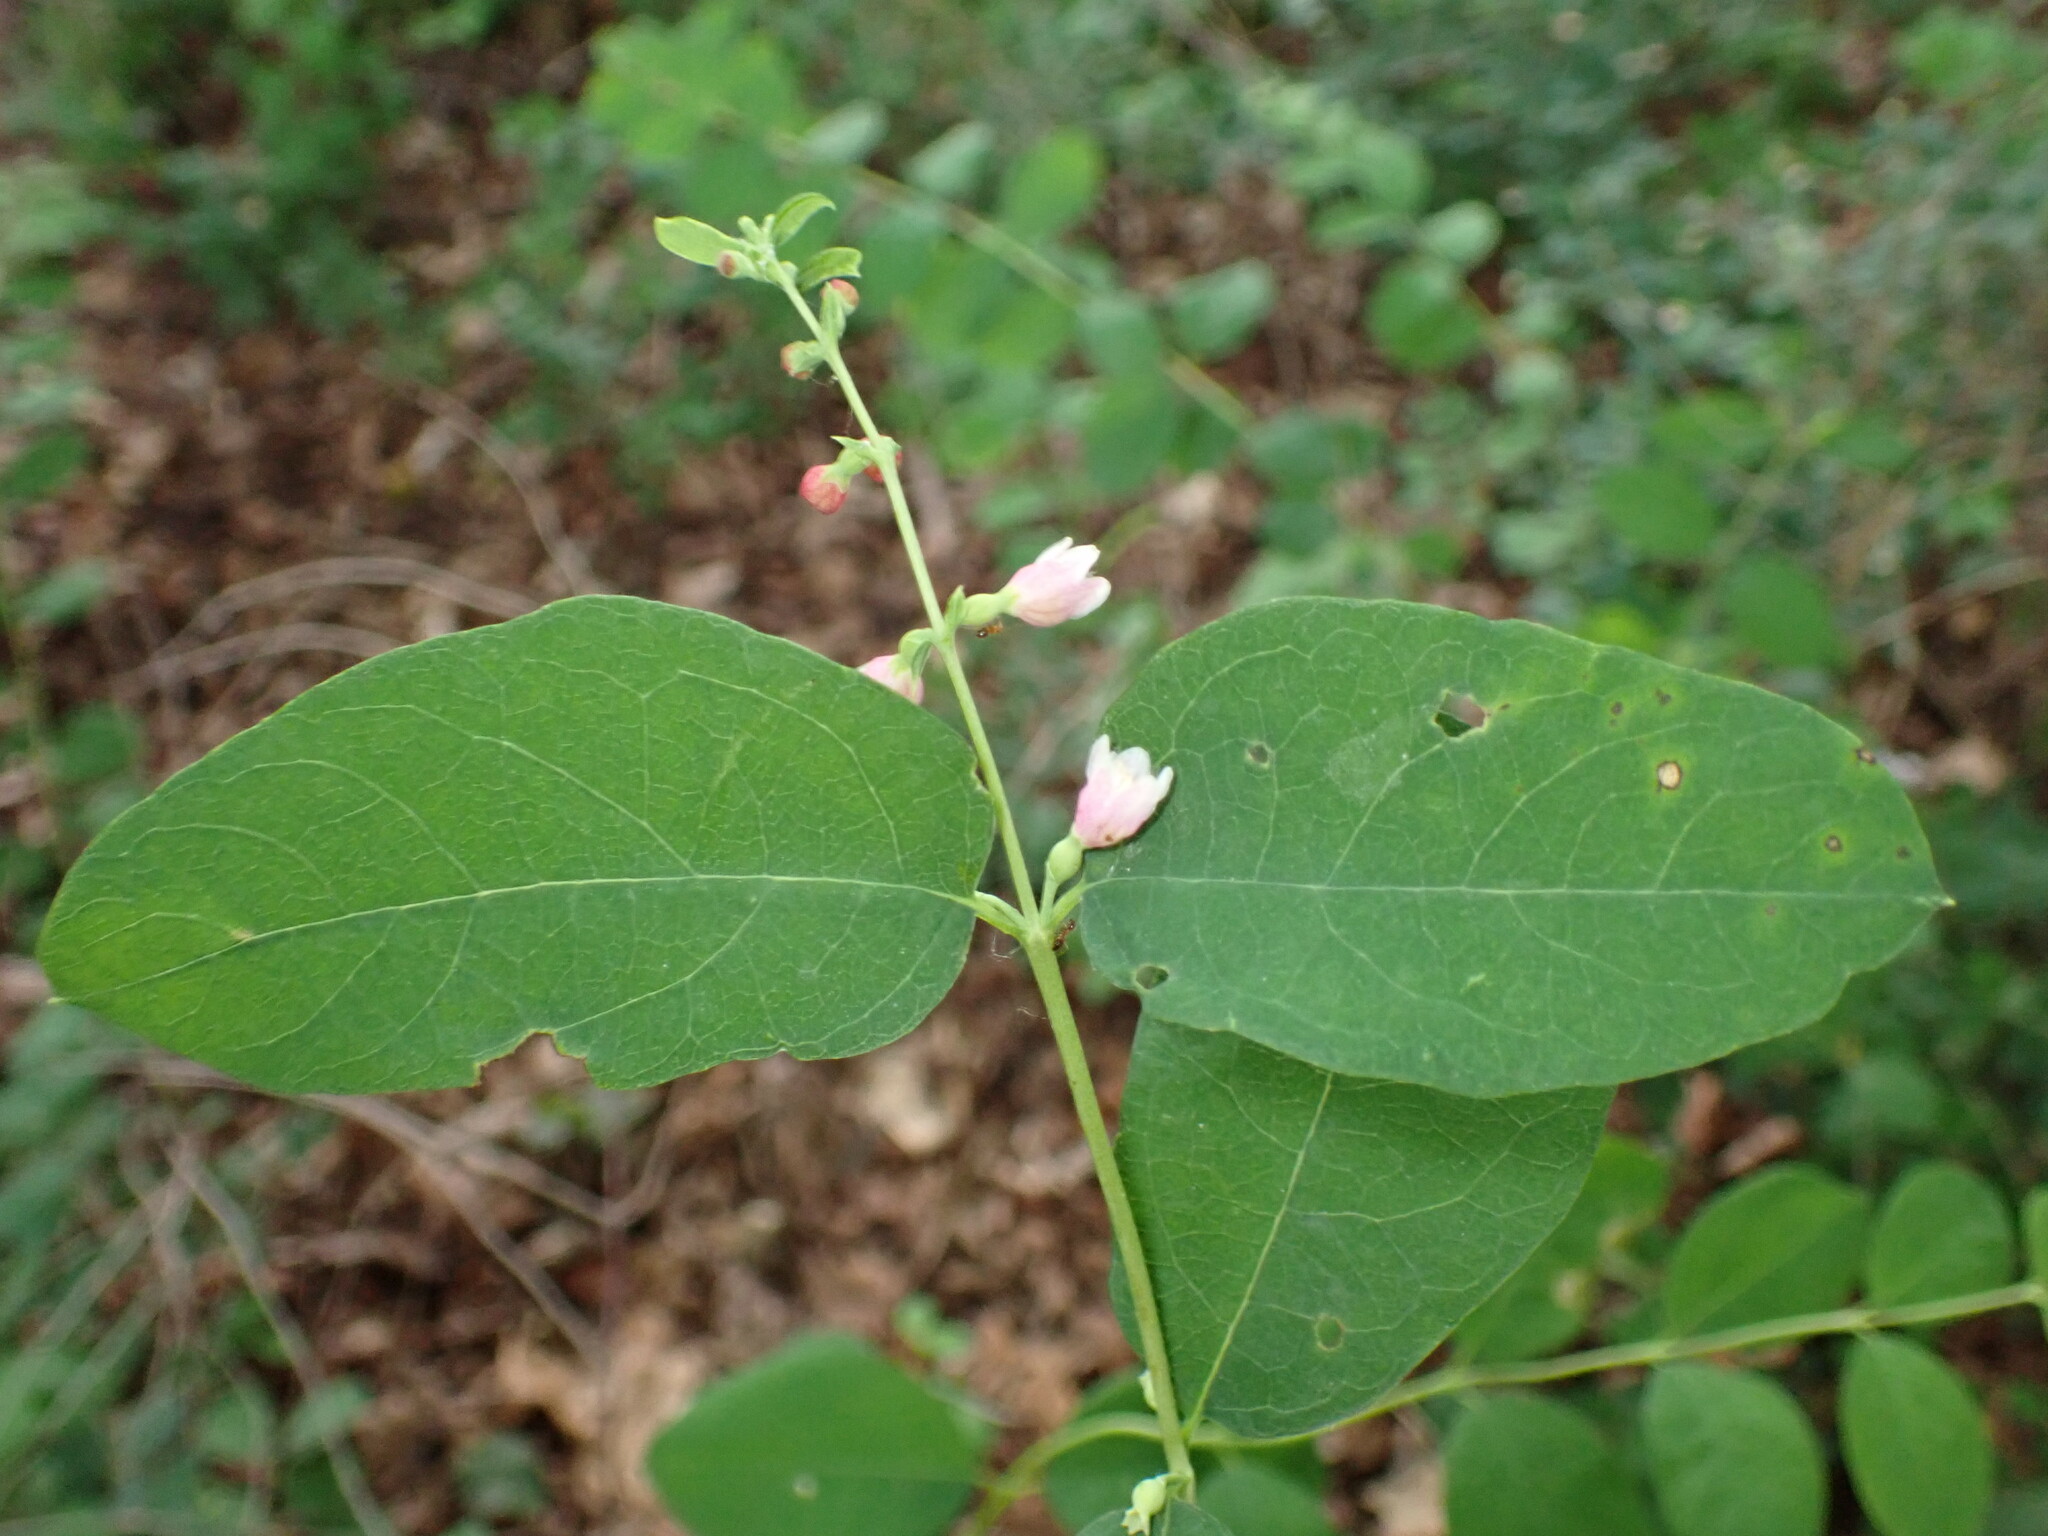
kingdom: Plantae
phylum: Tracheophyta
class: Magnoliopsida
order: Dipsacales
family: Caprifoliaceae
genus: Symphoricarpos
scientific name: Symphoricarpos albus
